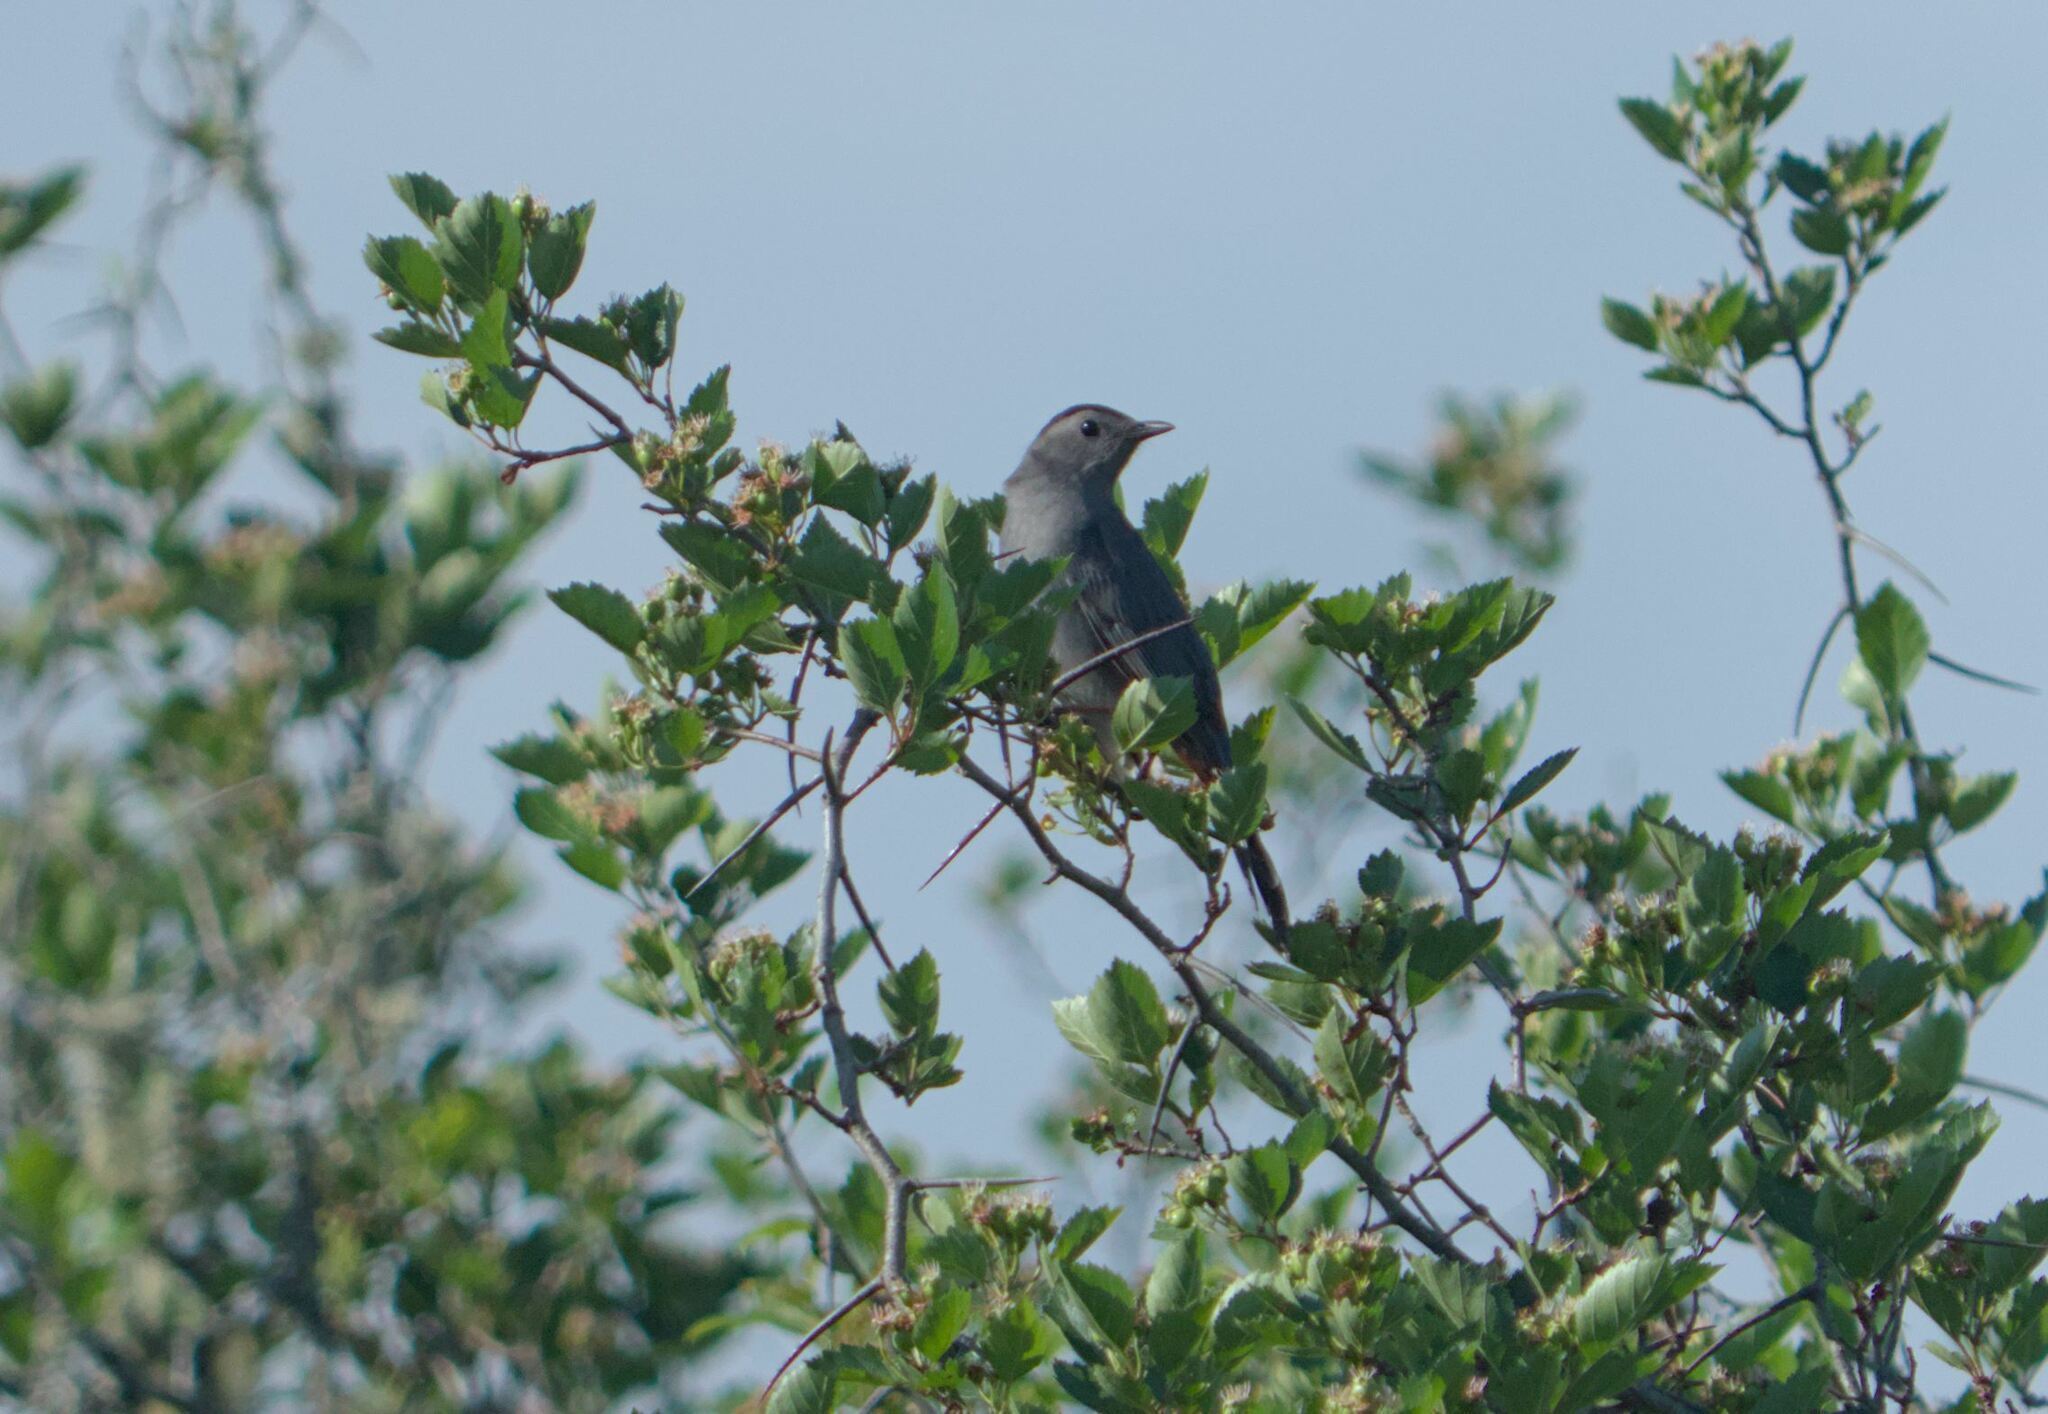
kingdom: Animalia
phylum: Chordata
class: Aves
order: Passeriformes
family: Mimidae
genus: Dumetella
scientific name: Dumetella carolinensis
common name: Gray catbird
